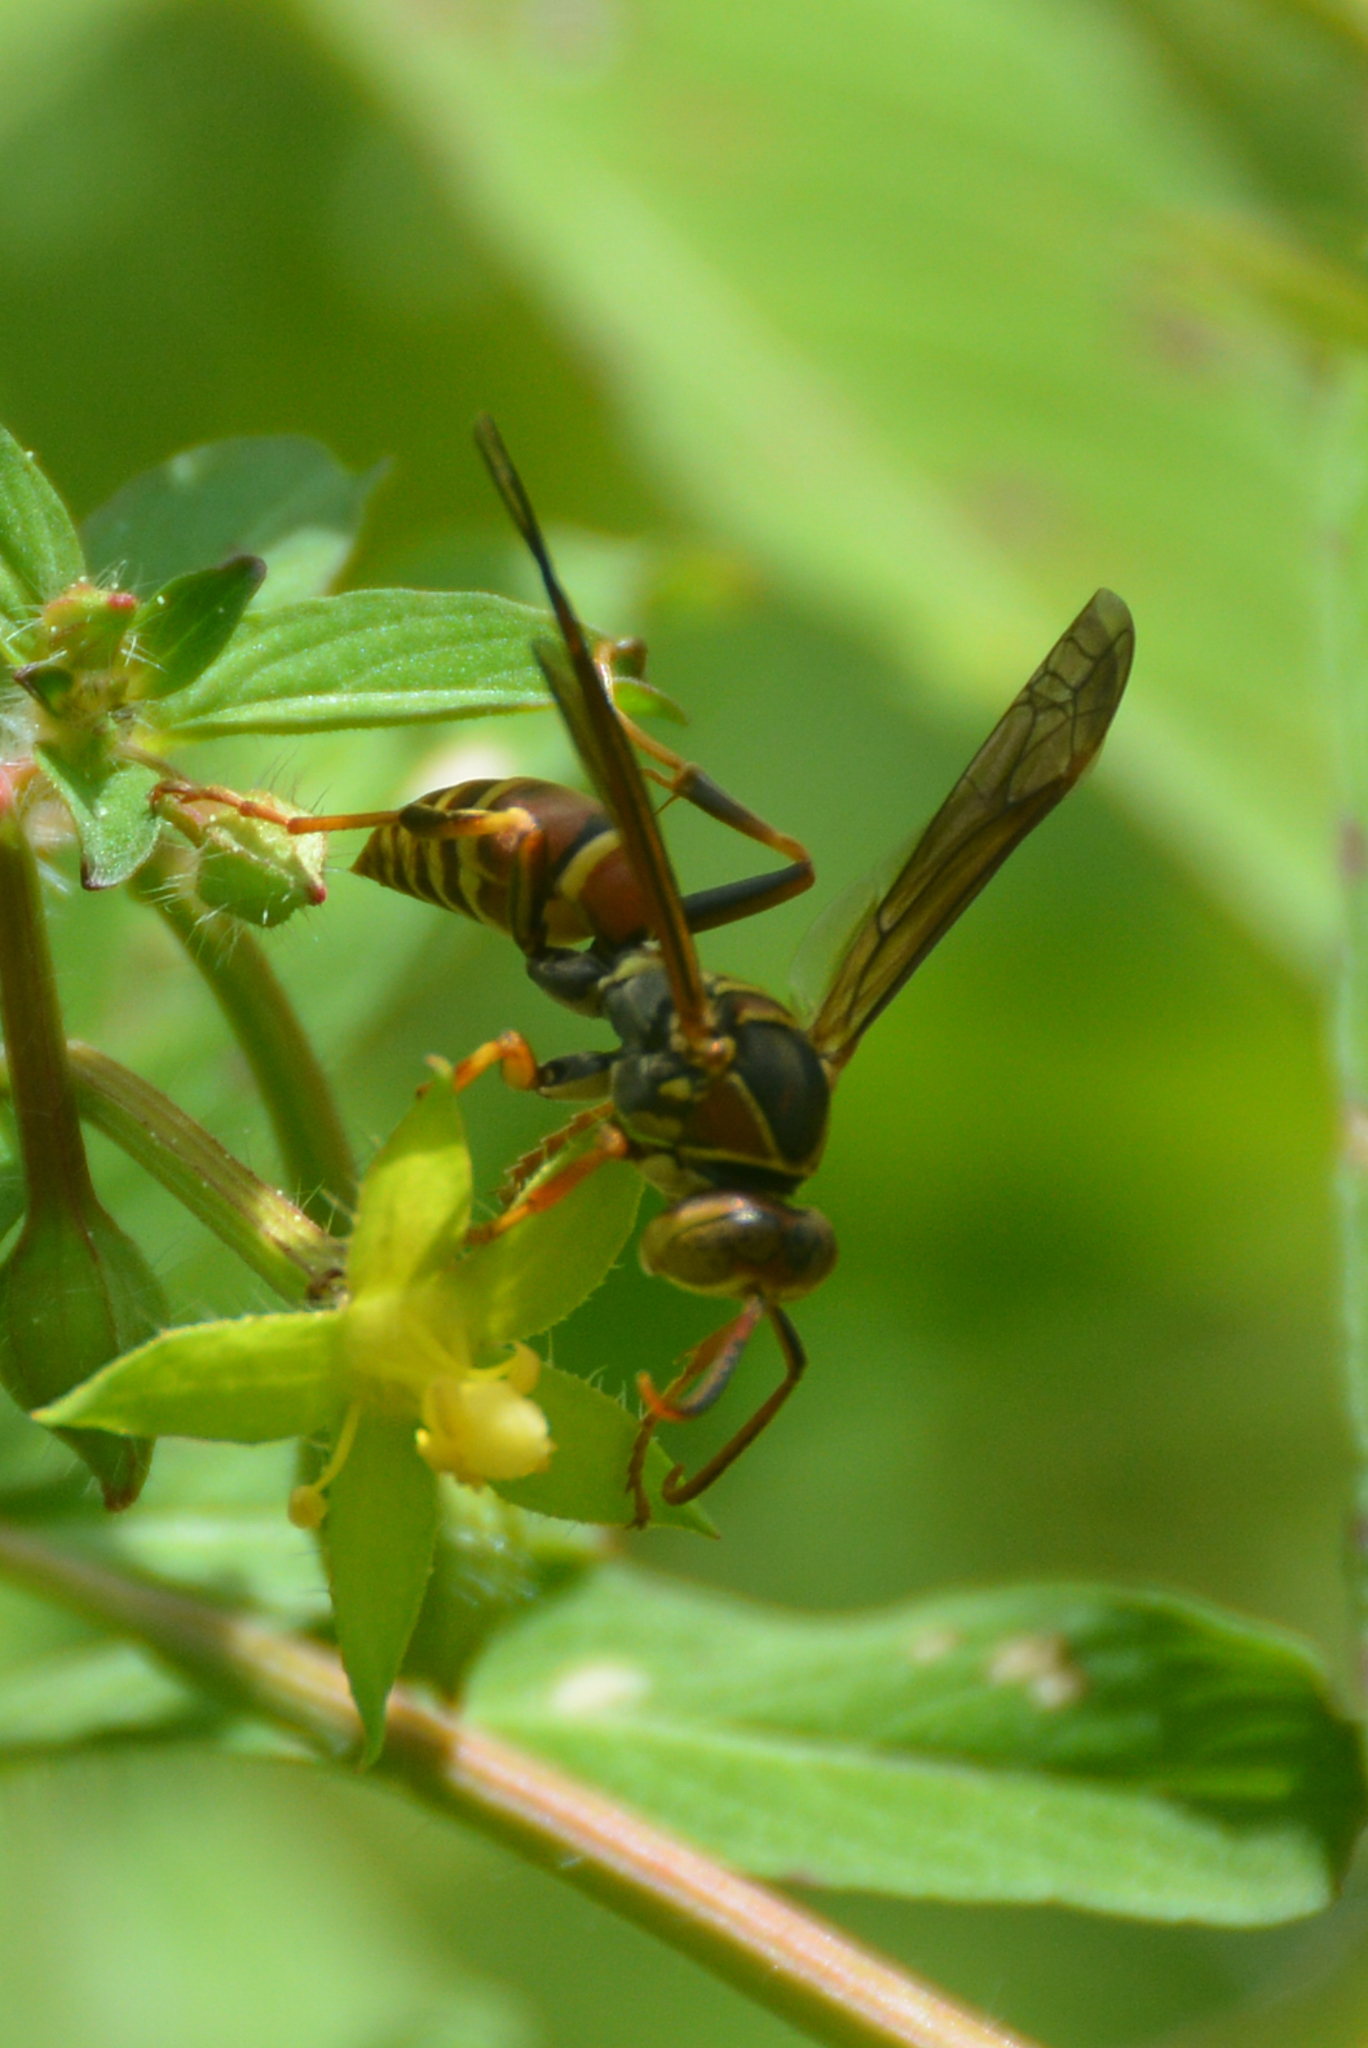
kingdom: Animalia
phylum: Arthropoda
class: Insecta
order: Hymenoptera
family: Eumenidae
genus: Polistes
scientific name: Polistes dorsalis
